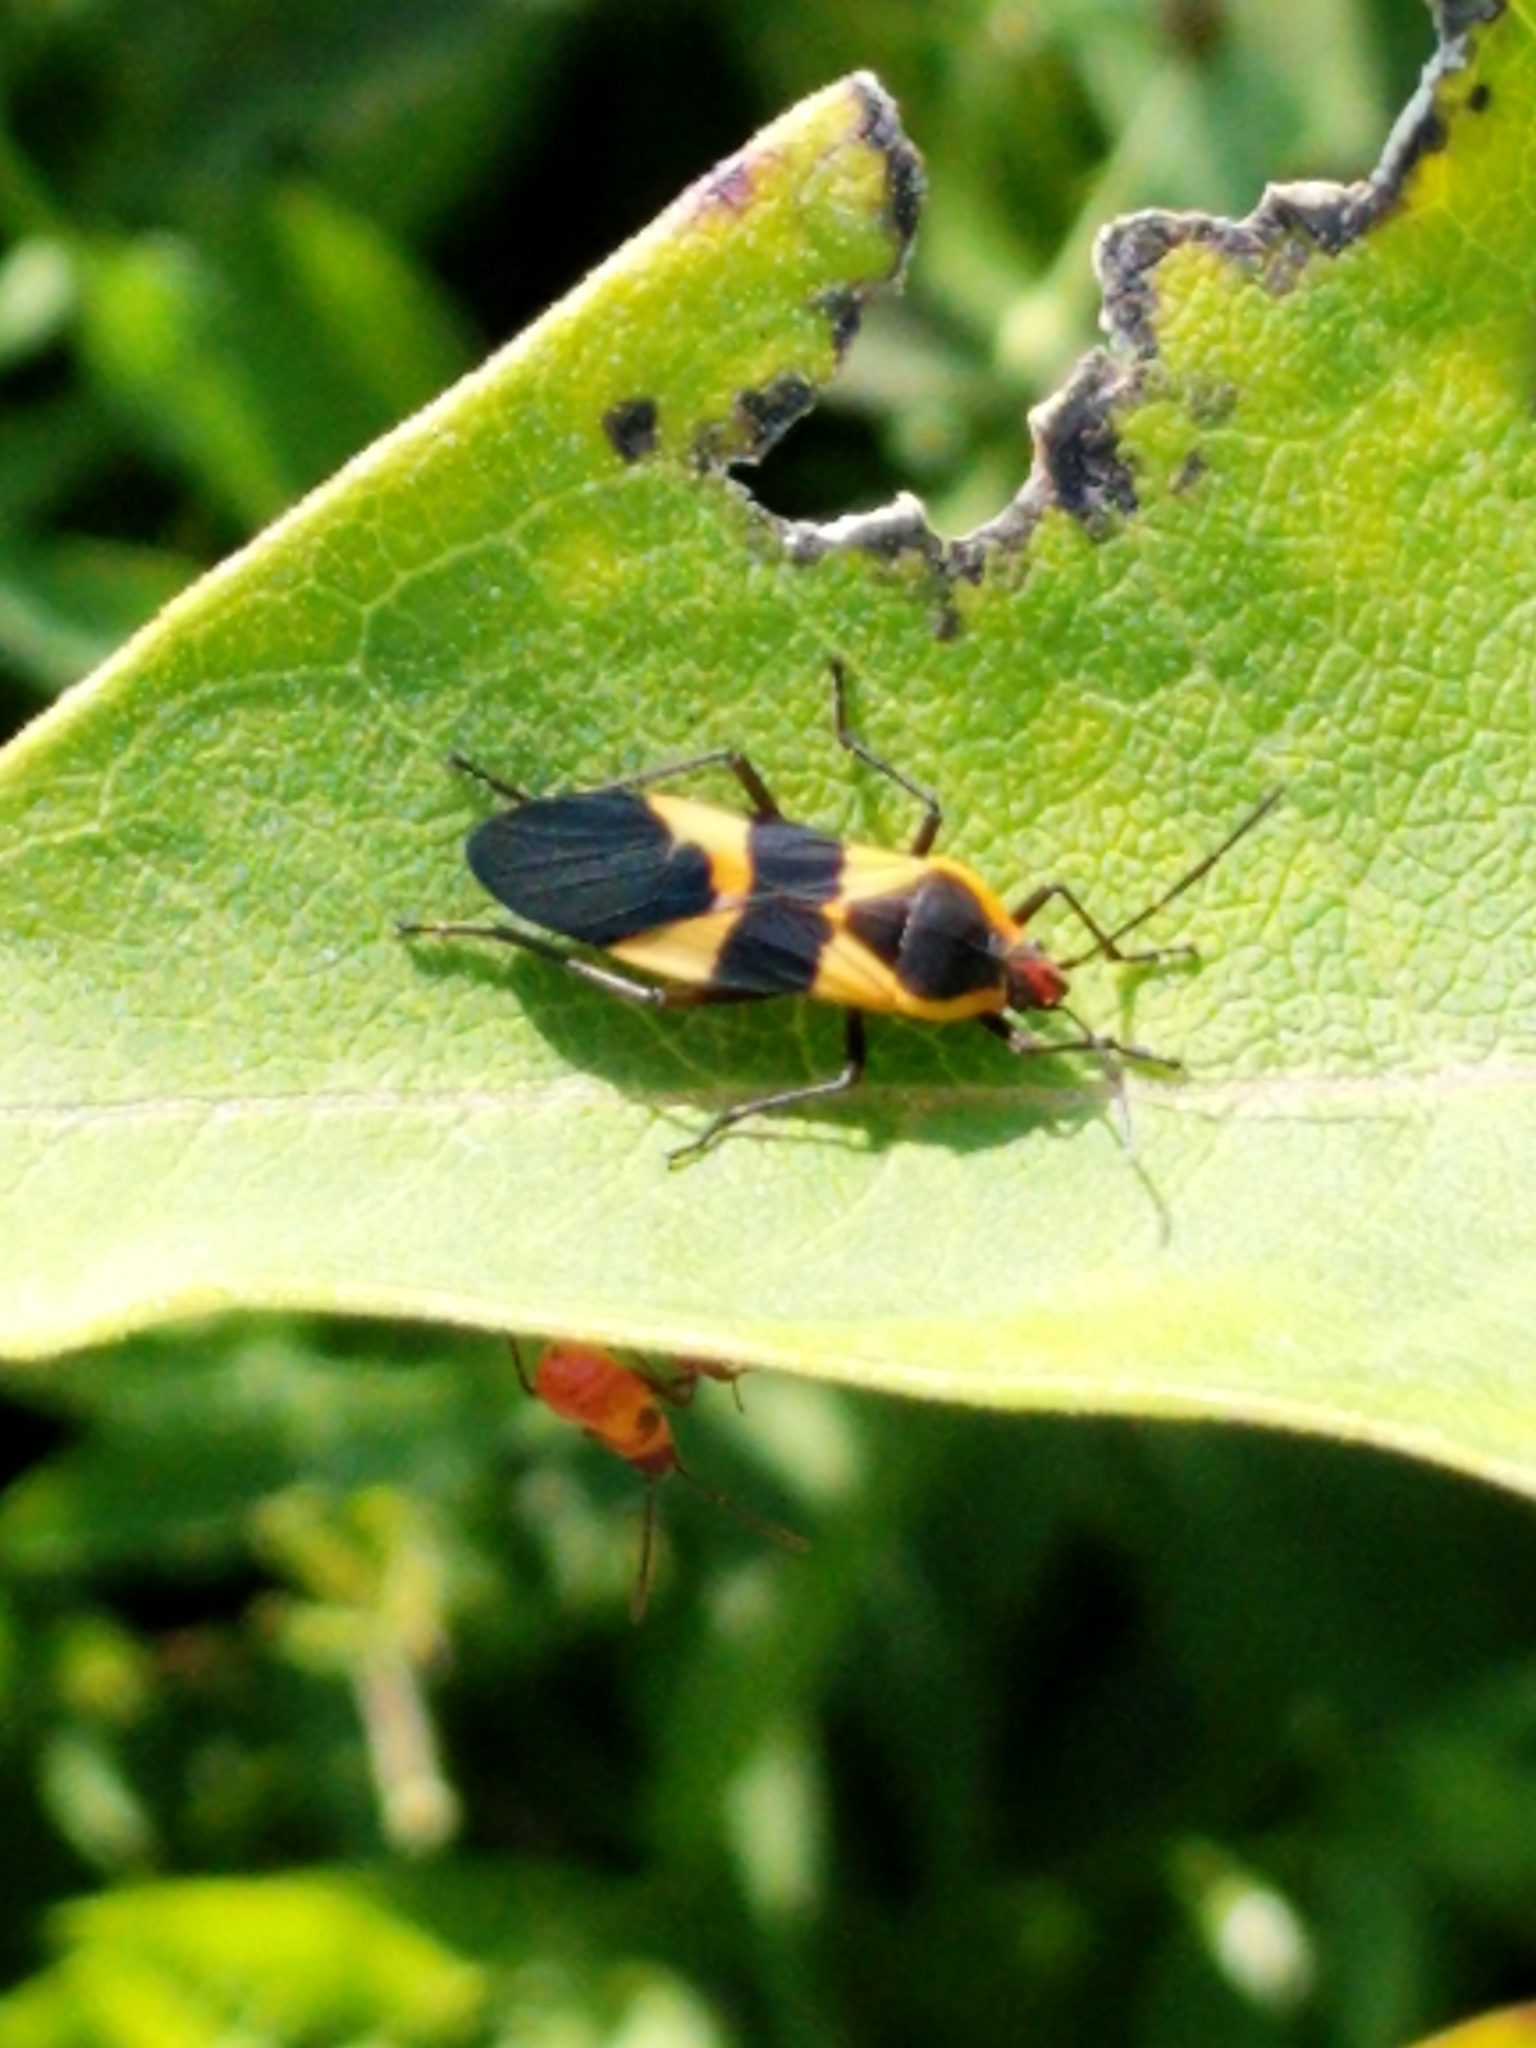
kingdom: Animalia
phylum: Arthropoda
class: Insecta
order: Hemiptera
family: Lygaeidae
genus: Oncopeltus
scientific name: Oncopeltus fasciatus
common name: Large milkweed bug
